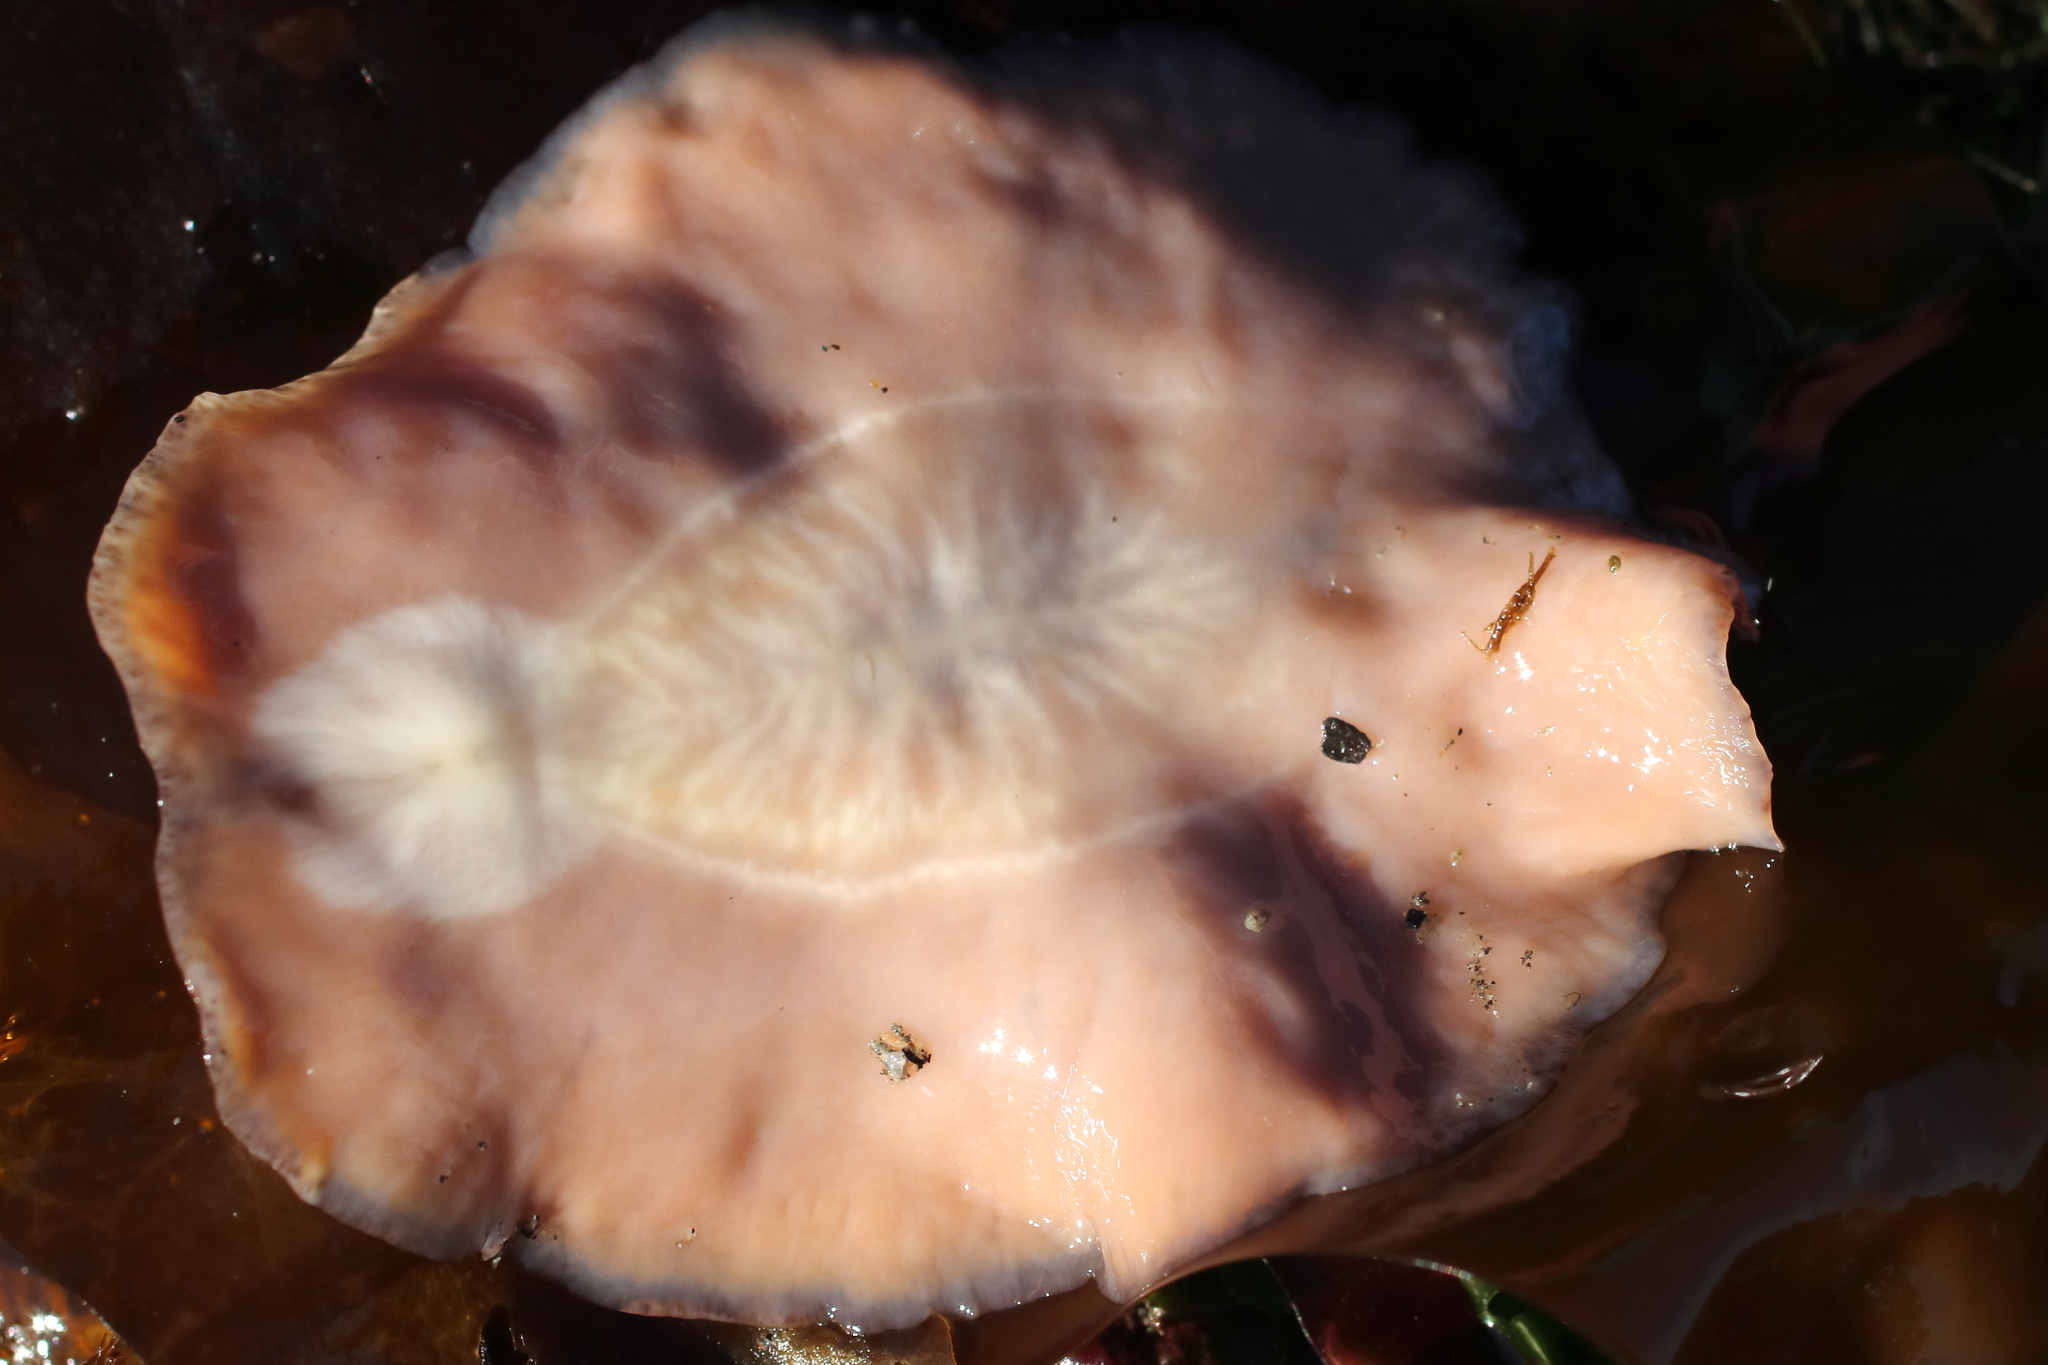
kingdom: Animalia
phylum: Platyhelminthes
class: Turbellaria
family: Callioplanidae
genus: Kaburakia
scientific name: Kaburakia excelsa
